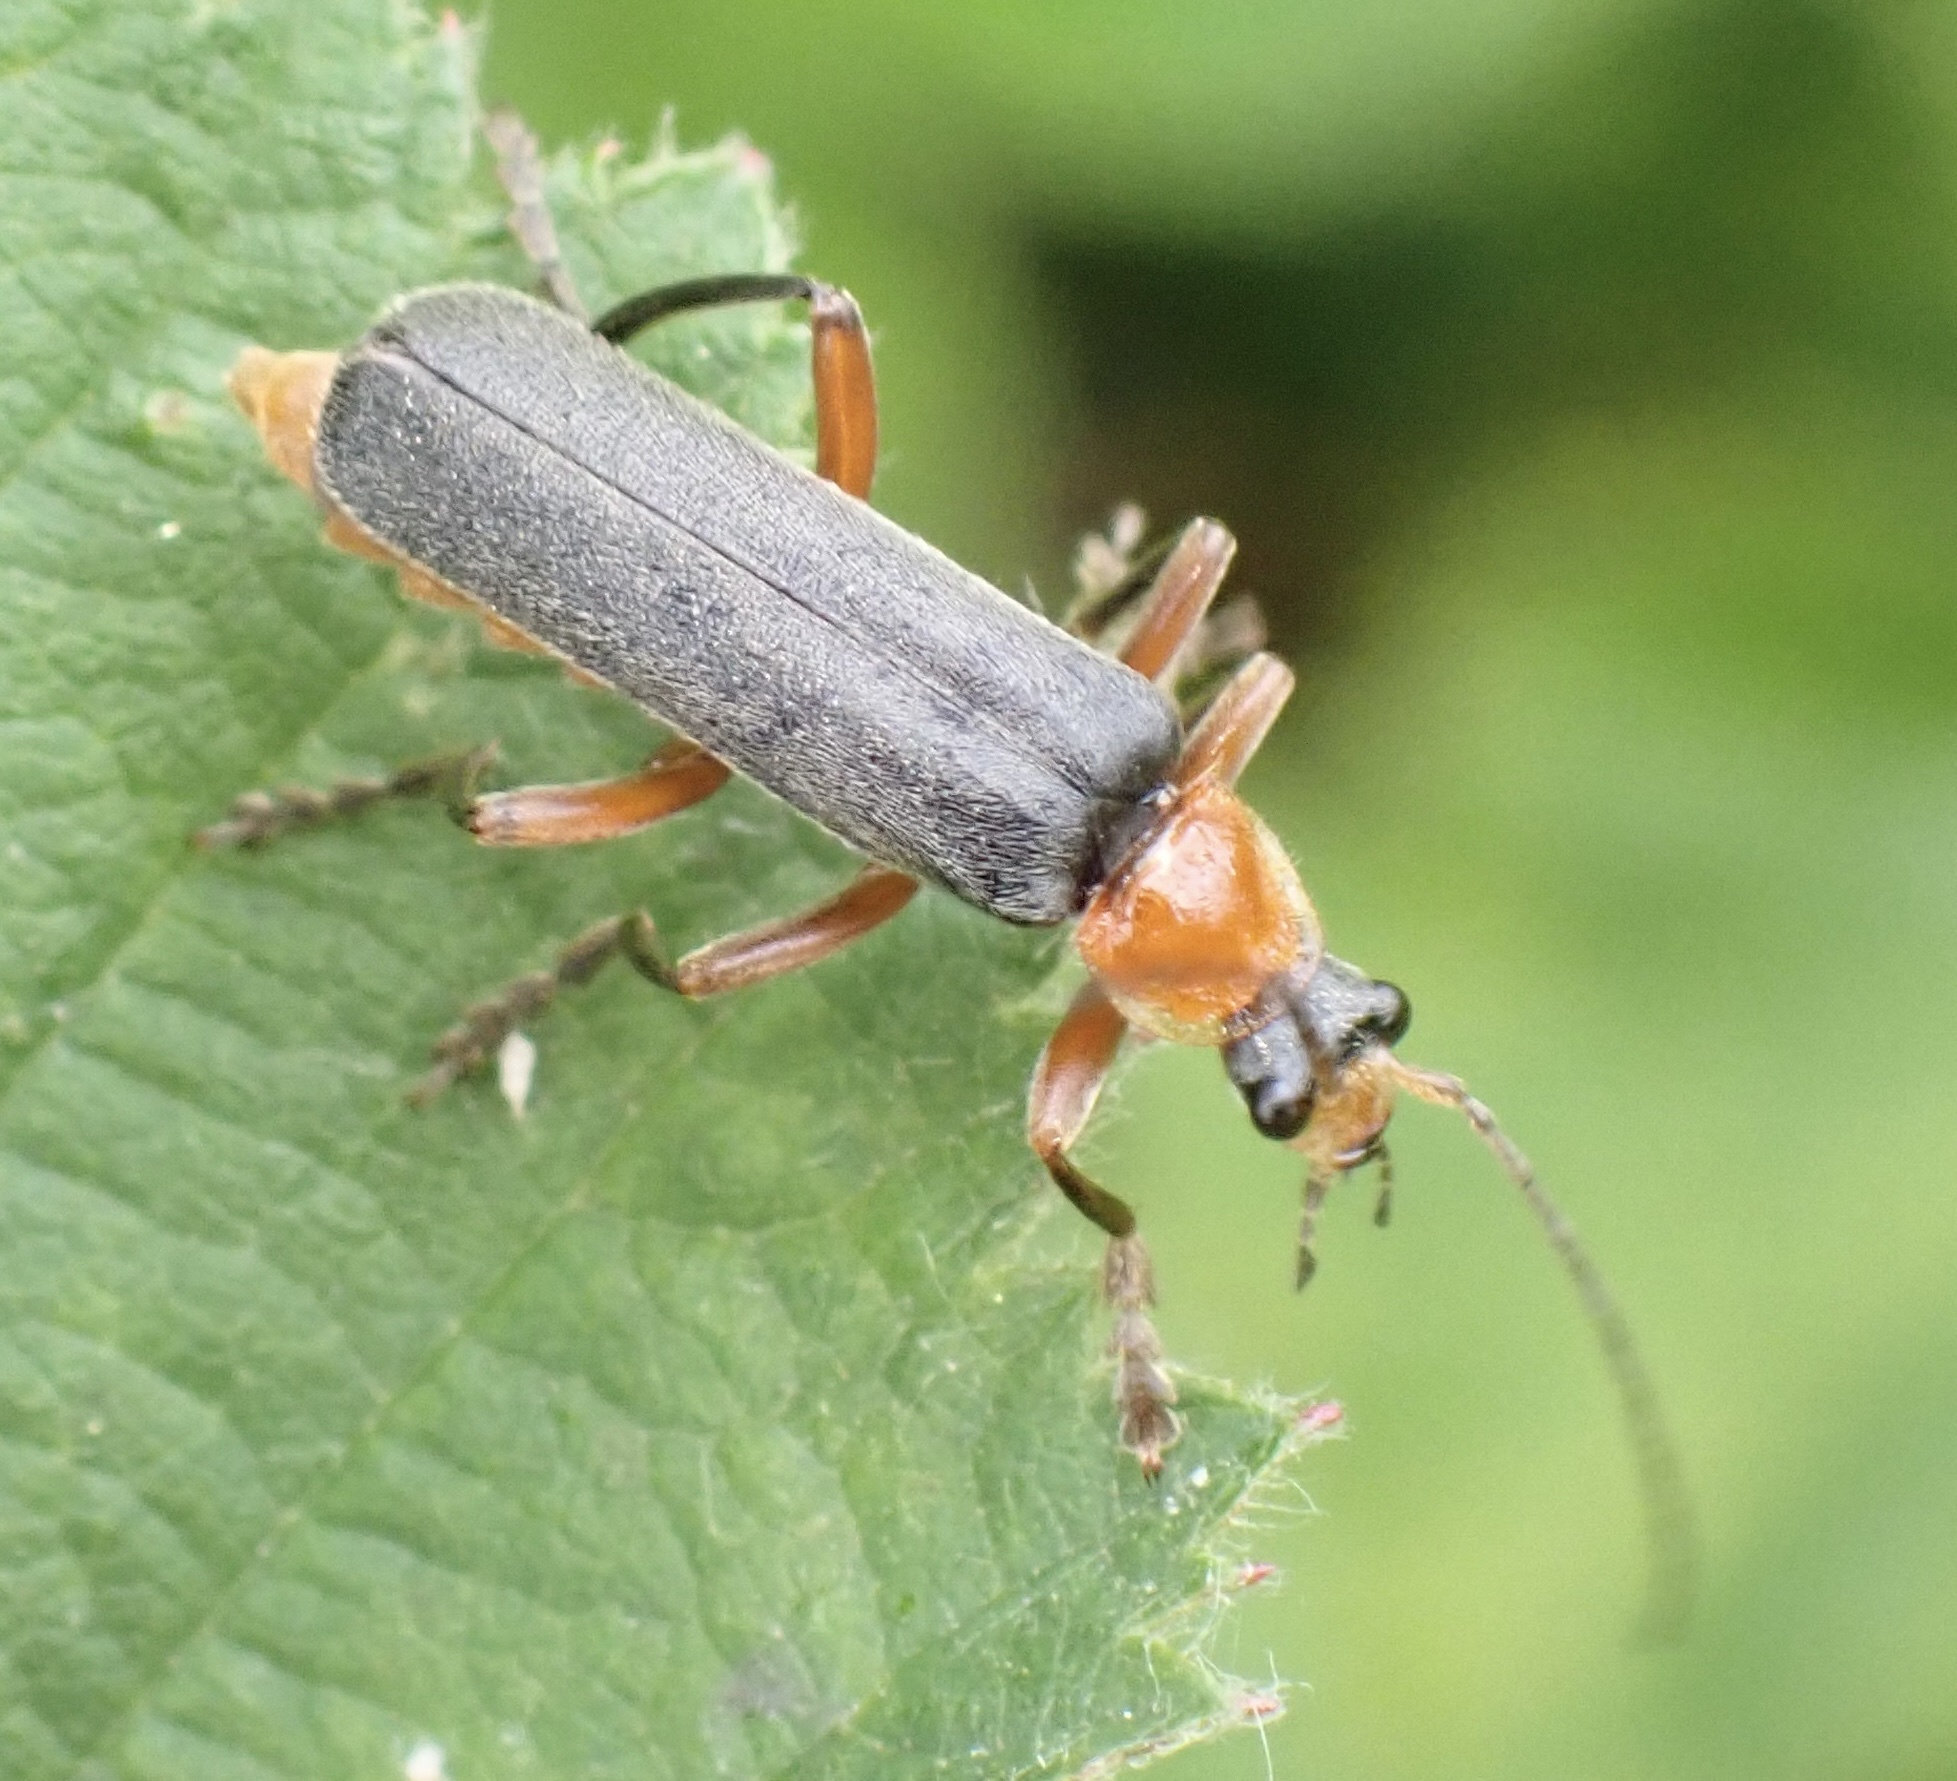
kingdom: Animalia
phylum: Arthropoda
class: Insecta
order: Coleoptera
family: Cantharidae
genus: Cantharis
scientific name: Cantharis pellucida
